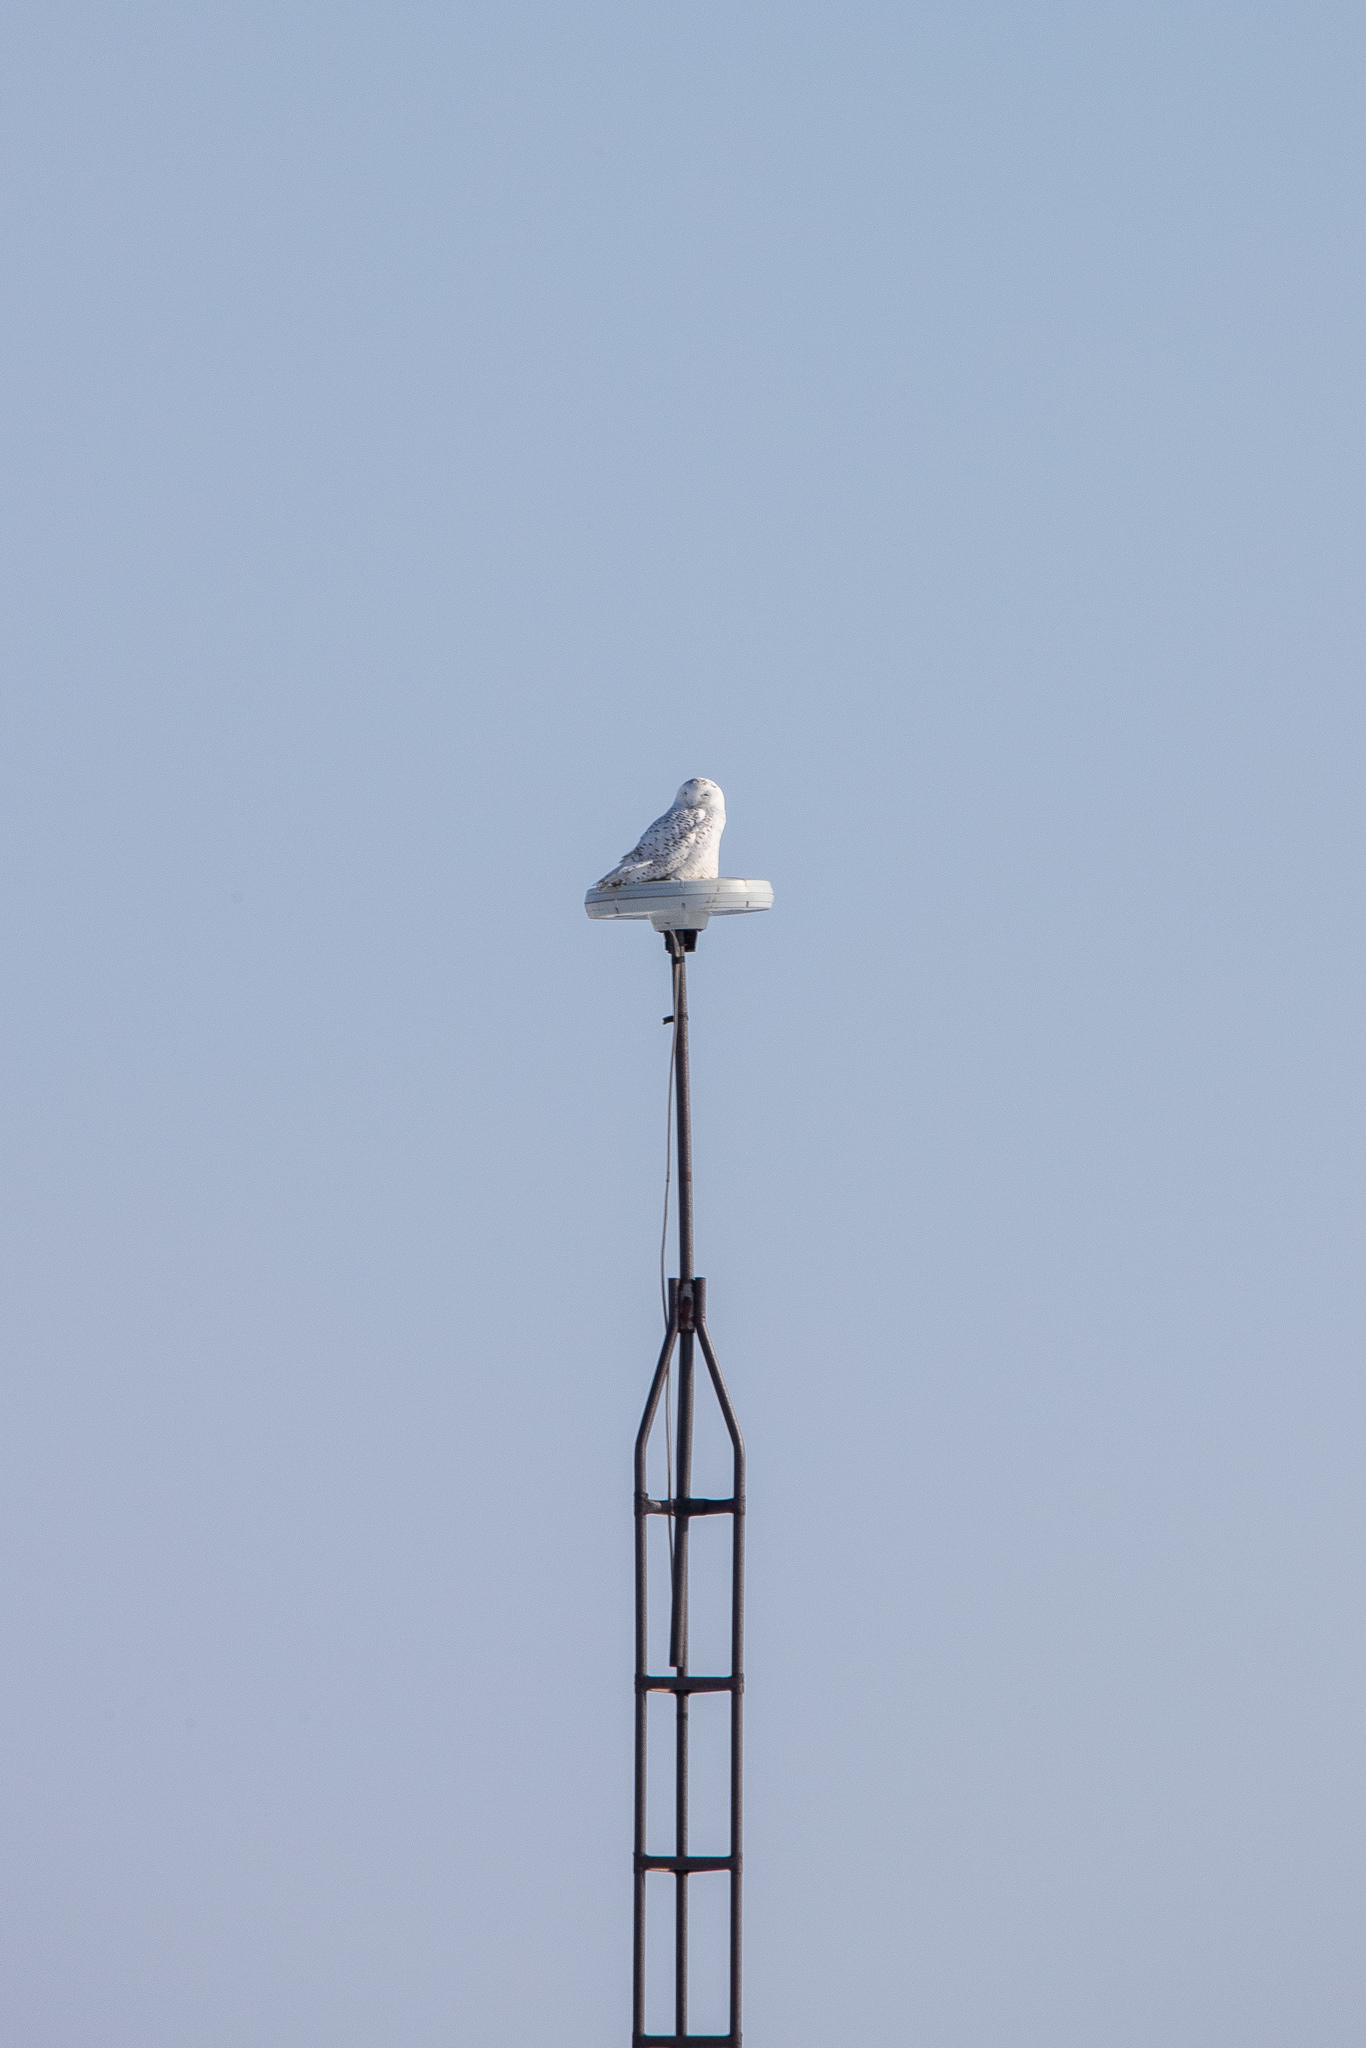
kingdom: Animalia
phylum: Chordata
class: Aves
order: Strigiformes
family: Strigidae
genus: Bubo
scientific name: Bubo scandiacus
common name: Snowy owl
